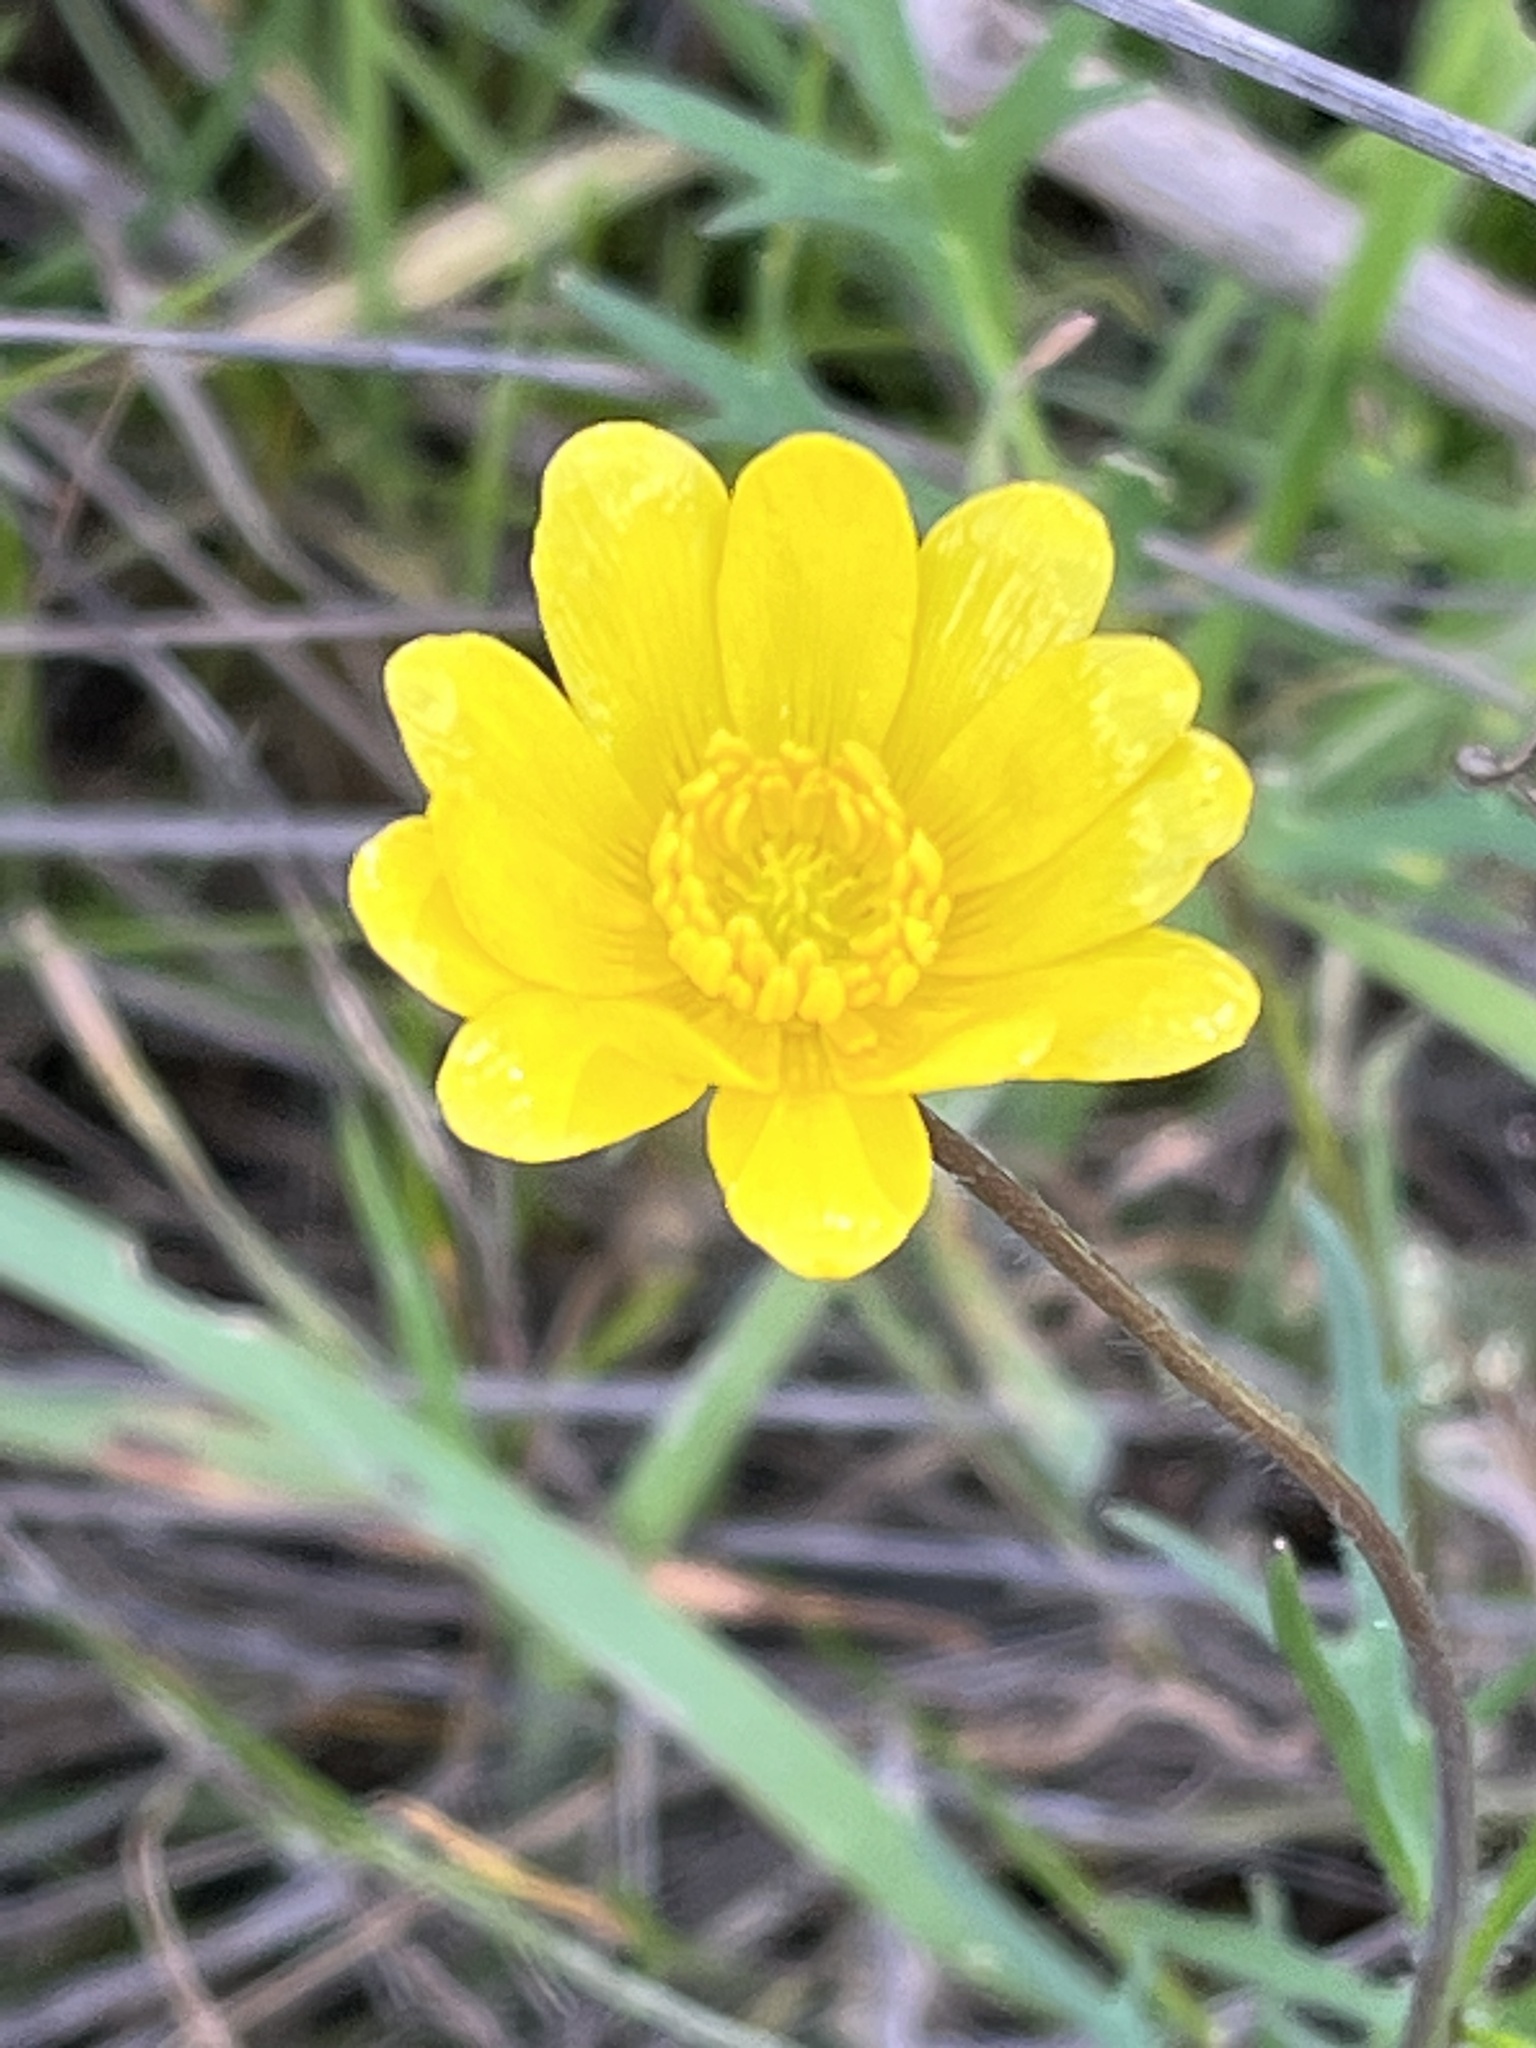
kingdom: Plantae
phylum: Tracheophyta
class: Magnoliopsida
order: Ranunculales
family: Ranunculaceae
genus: Ranunculus
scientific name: Ranunculus californicus
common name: California buttercup
